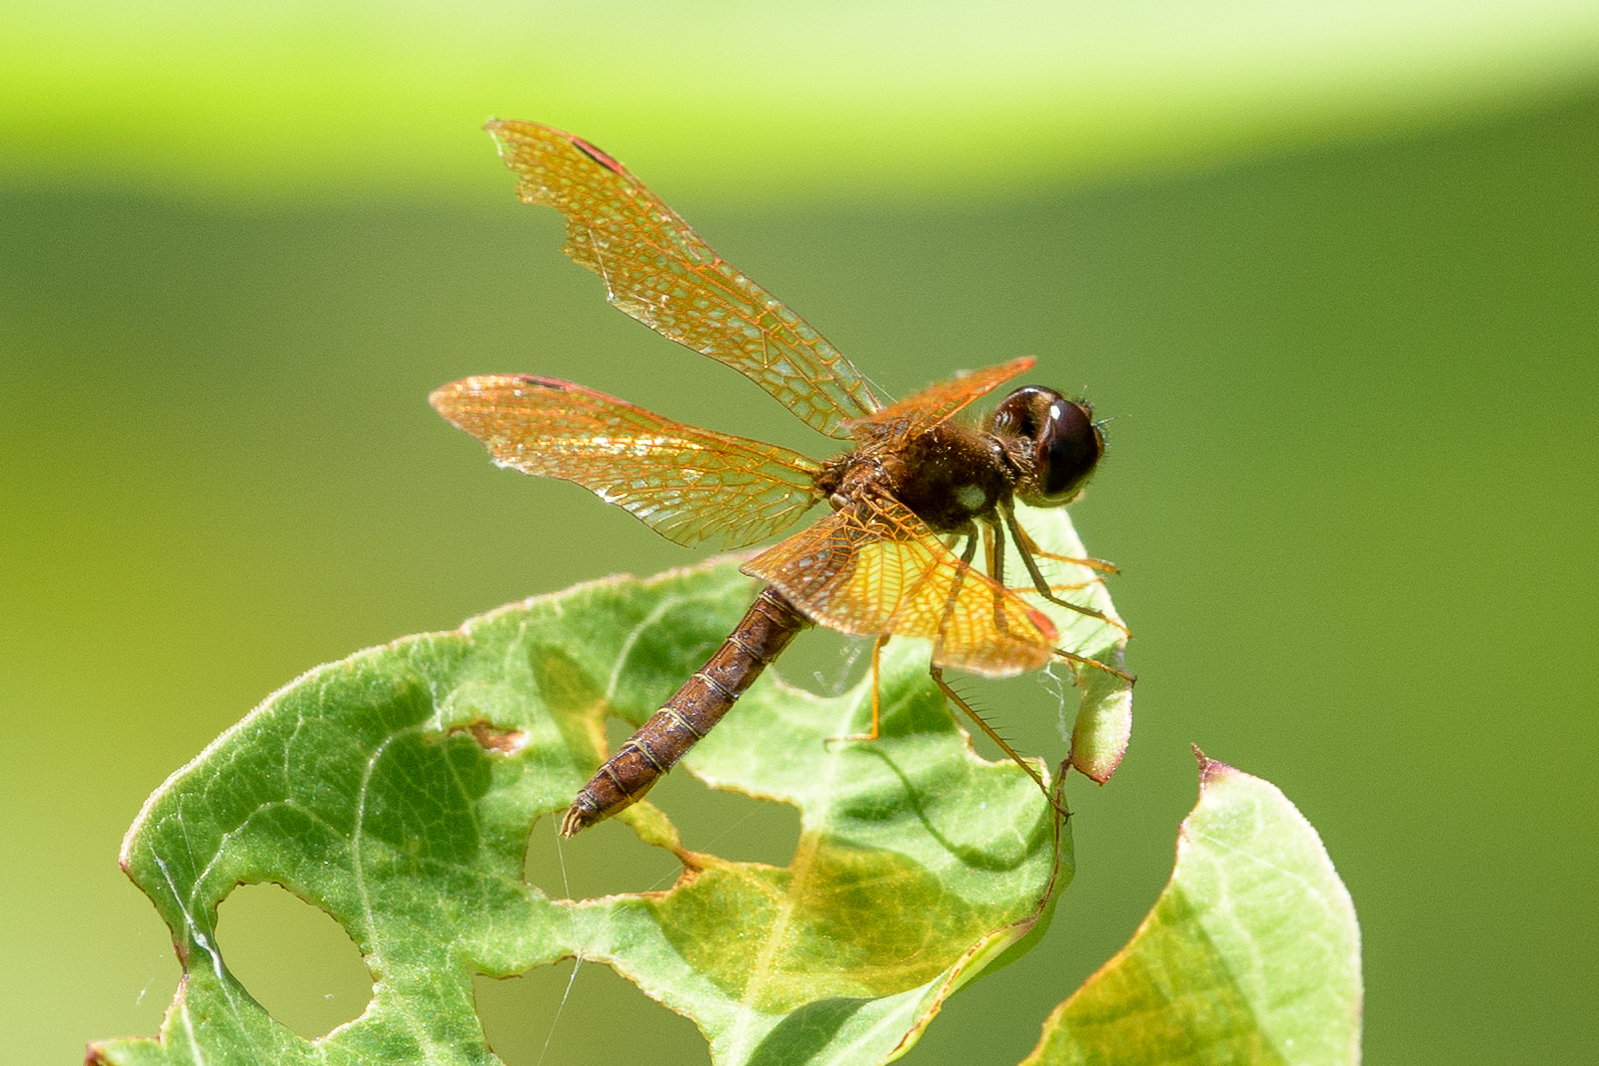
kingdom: Animalia
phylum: Arthropoda
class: Insecta
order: Odonata
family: Libellulidae
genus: Perithemis
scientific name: Perithemis tenera
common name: Eastern amberwing
